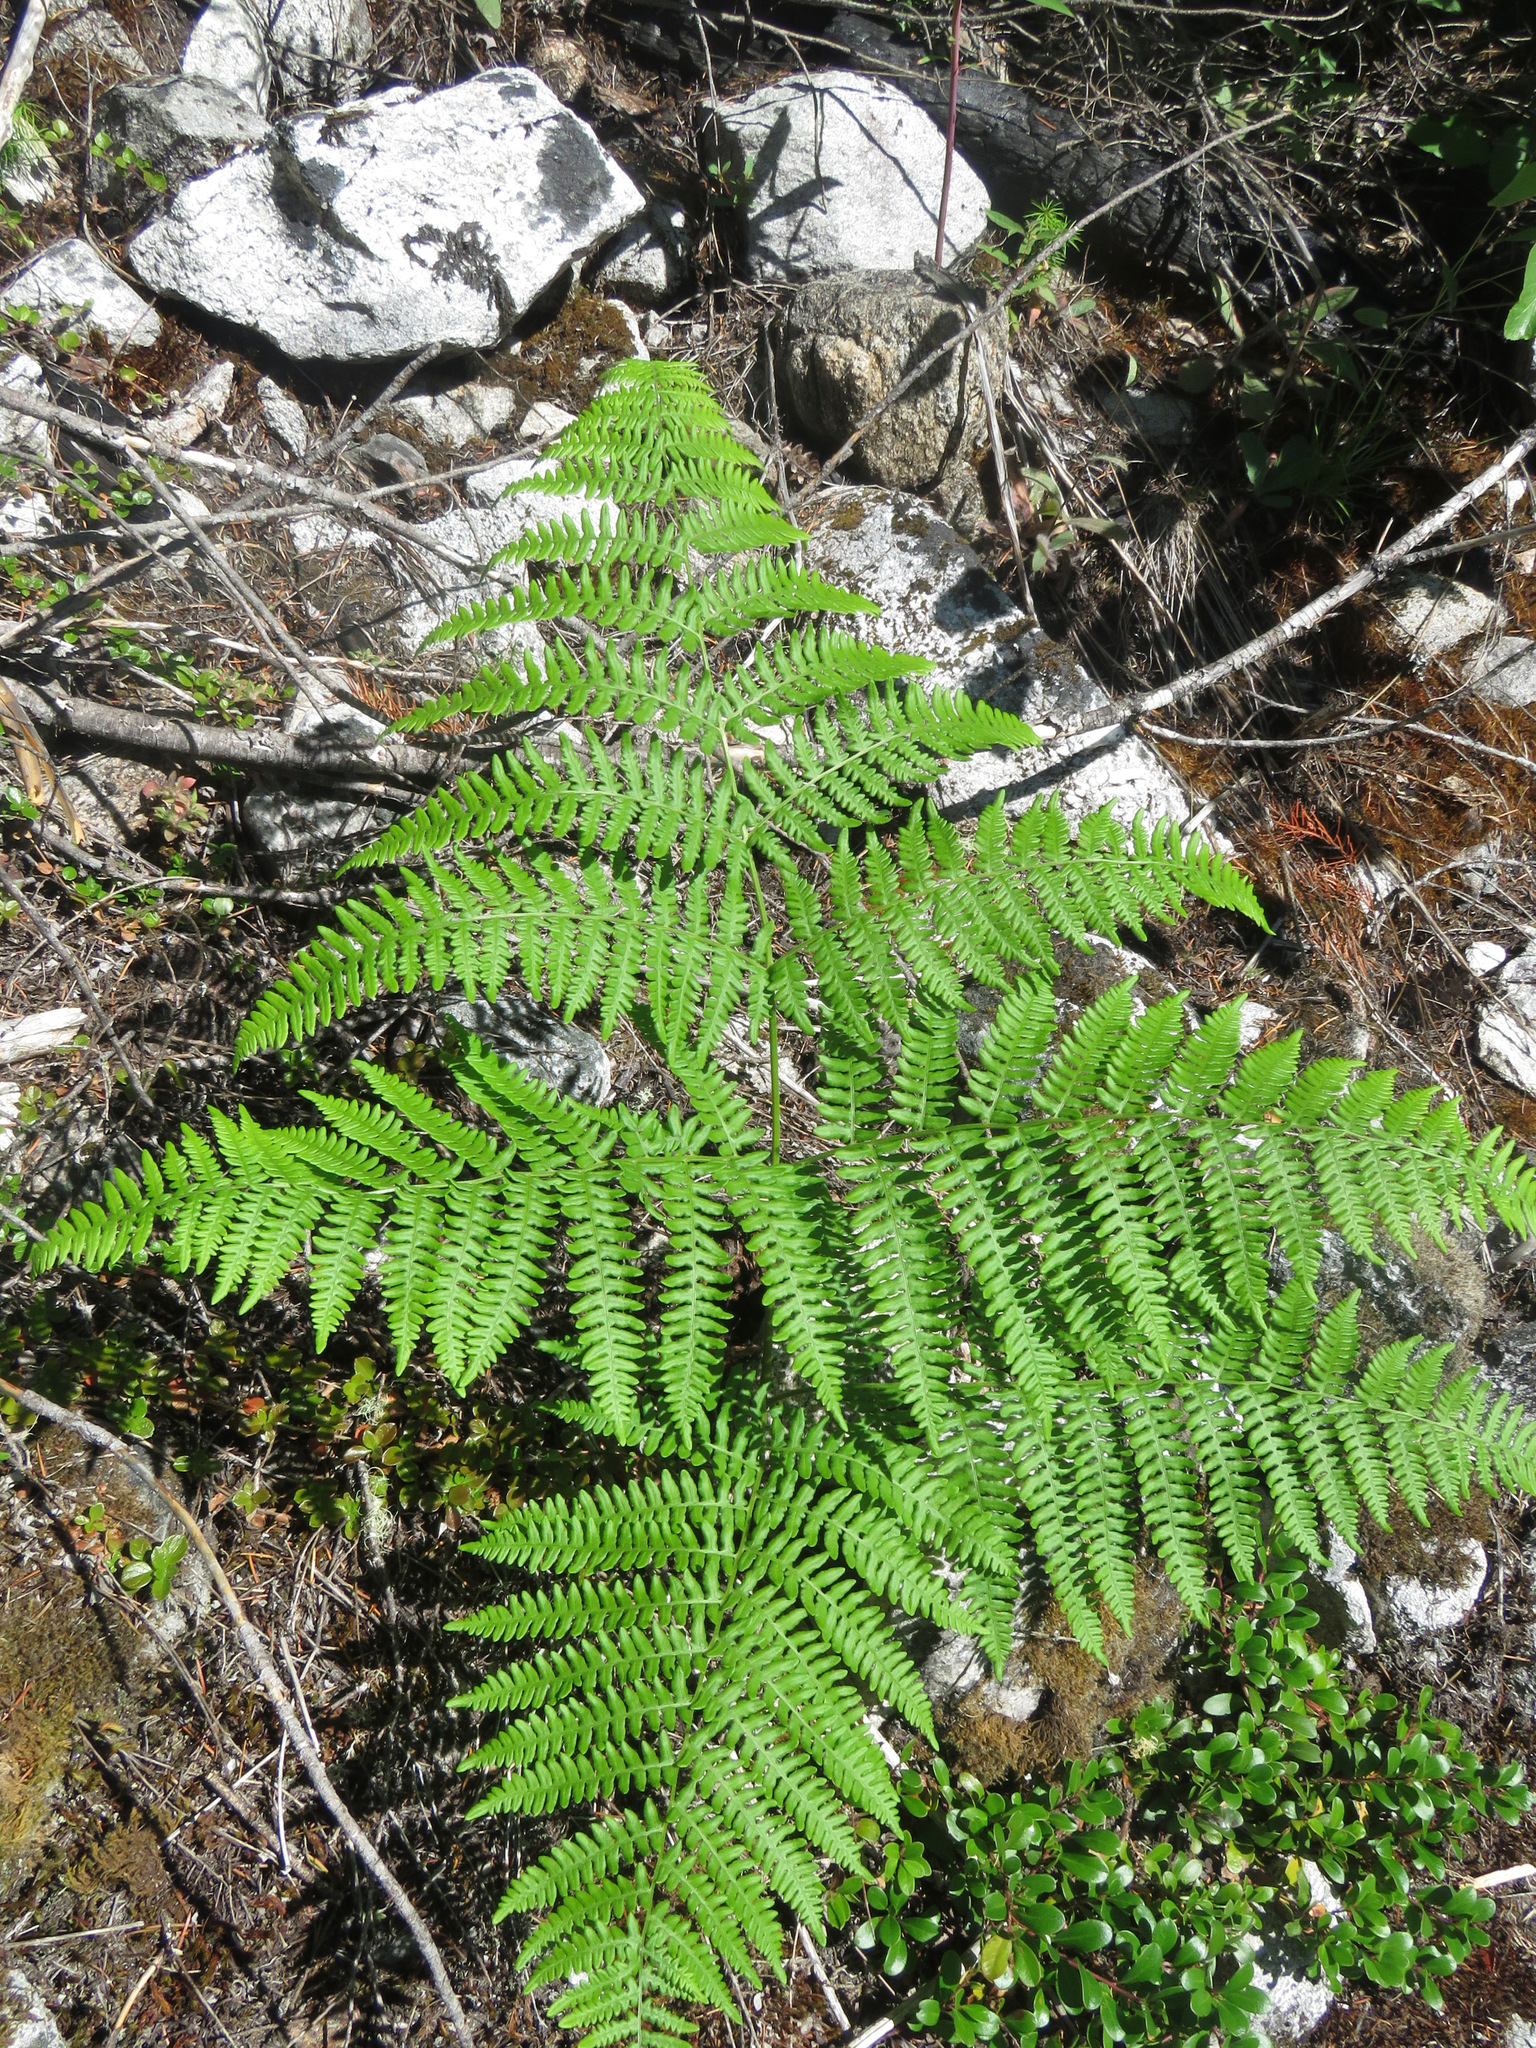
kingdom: Plantae
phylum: Tracheophyta
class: Polypodiopsida
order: Polypodiales
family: Dennstaedtiaceae
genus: Pteridium
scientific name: Pteridium aquilinum
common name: Bracken
